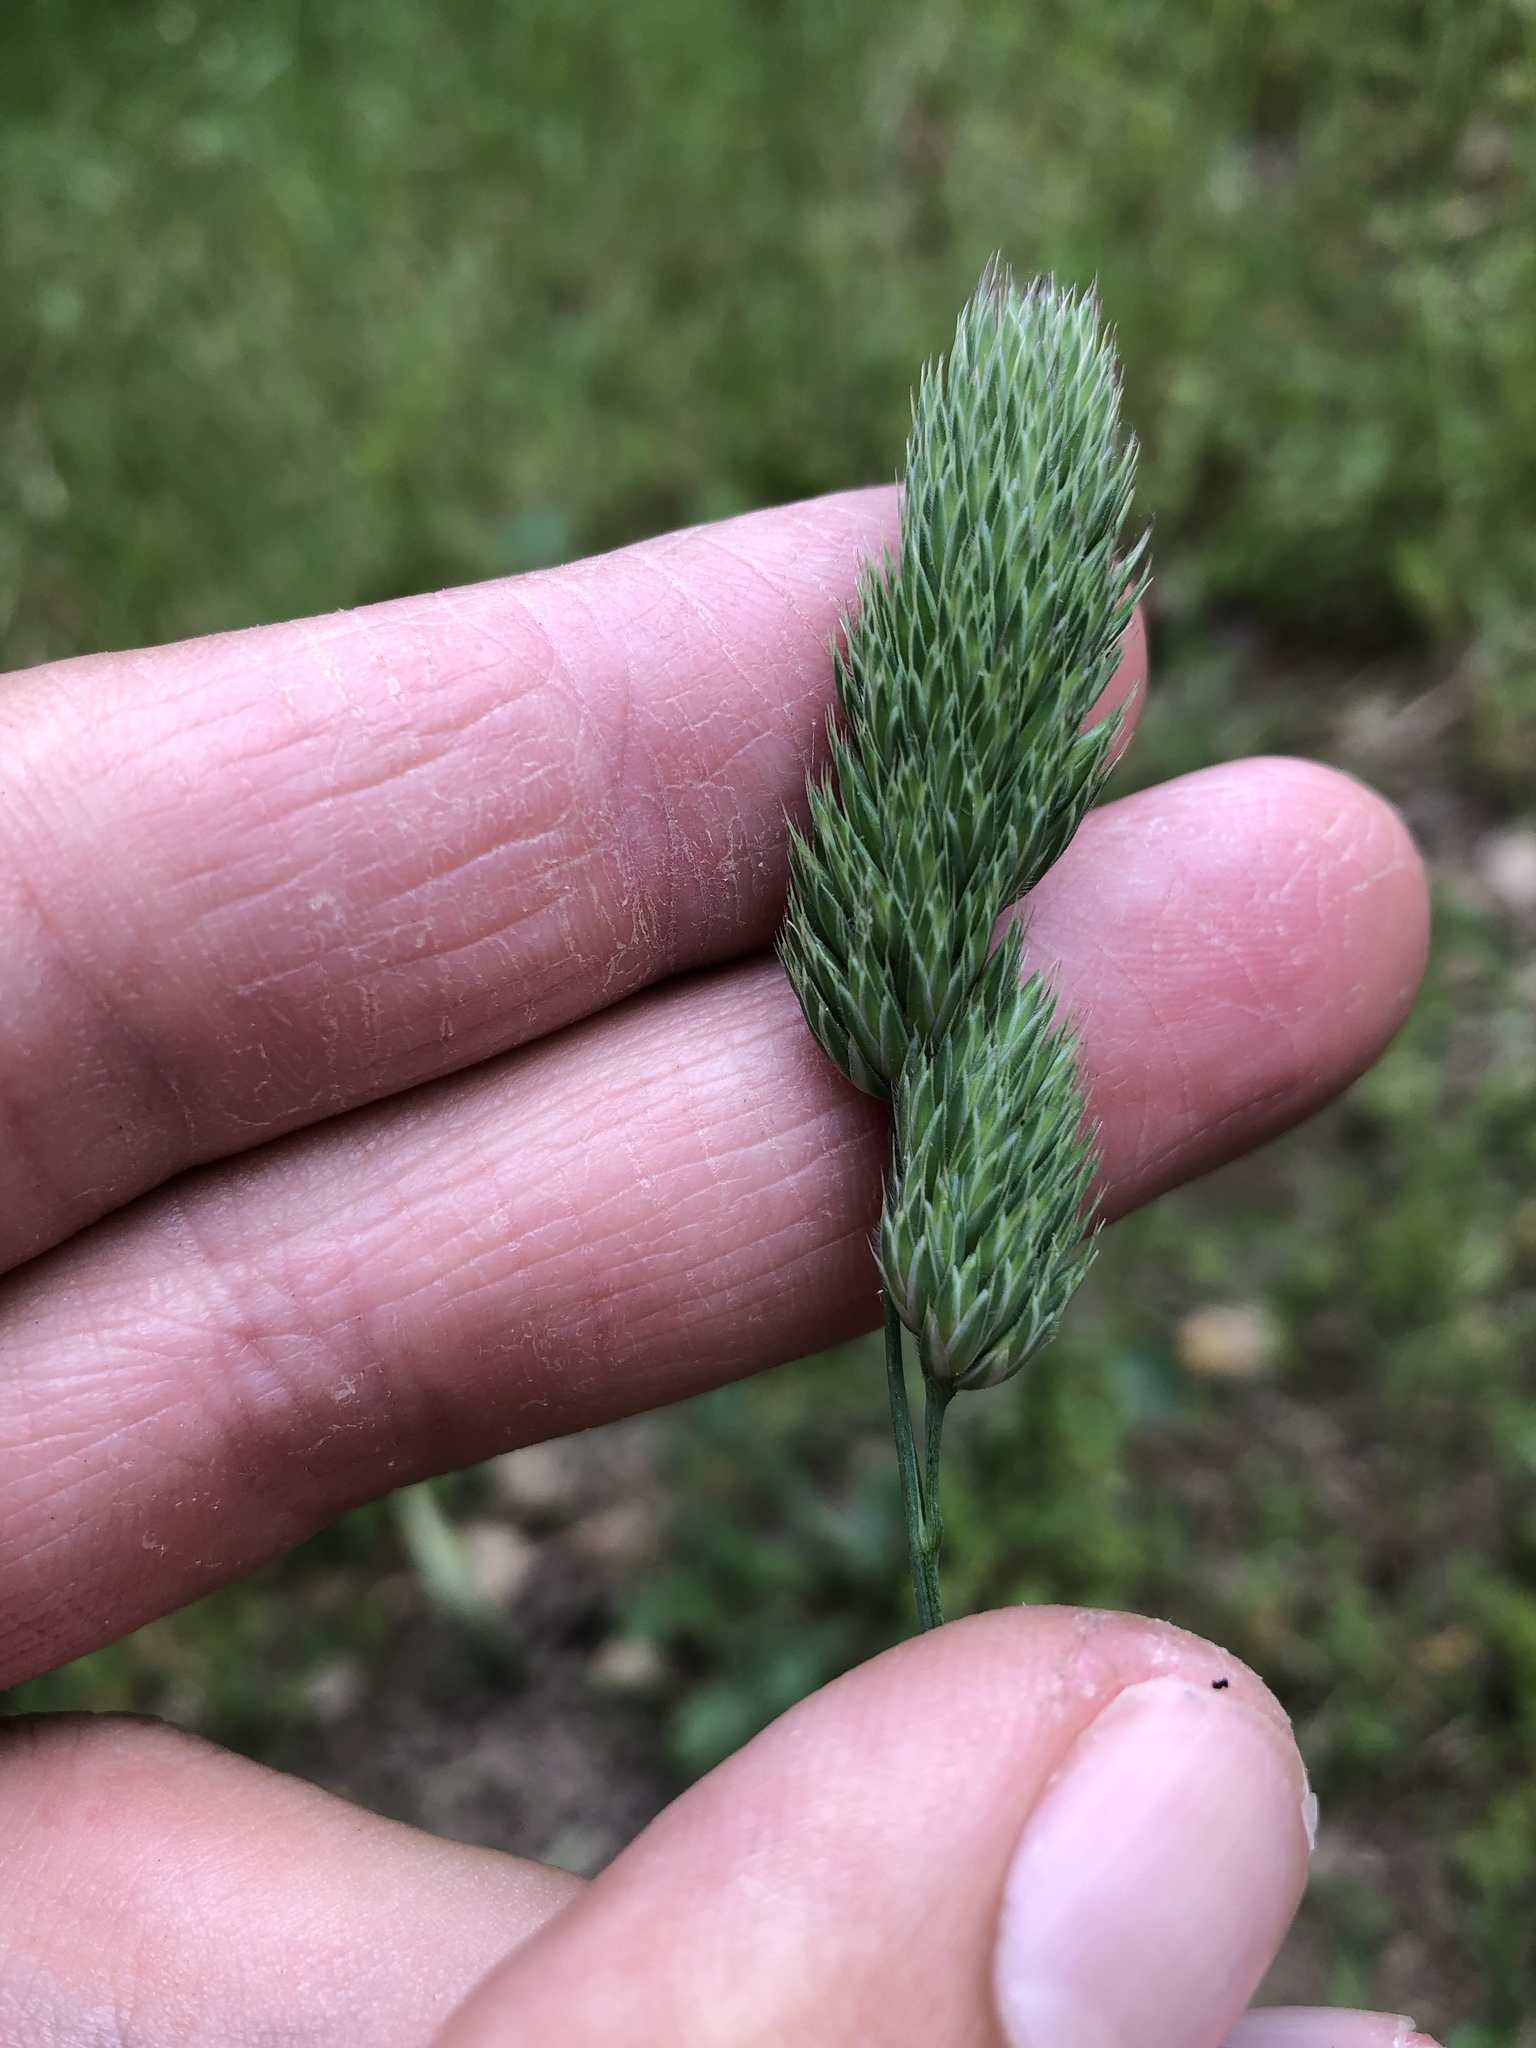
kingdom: Plantae
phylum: Tracheophyta
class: Liliopsida
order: Poales
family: Poaceae
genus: Dactylis
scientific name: Dactylis glomerata
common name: Orchardgrass
